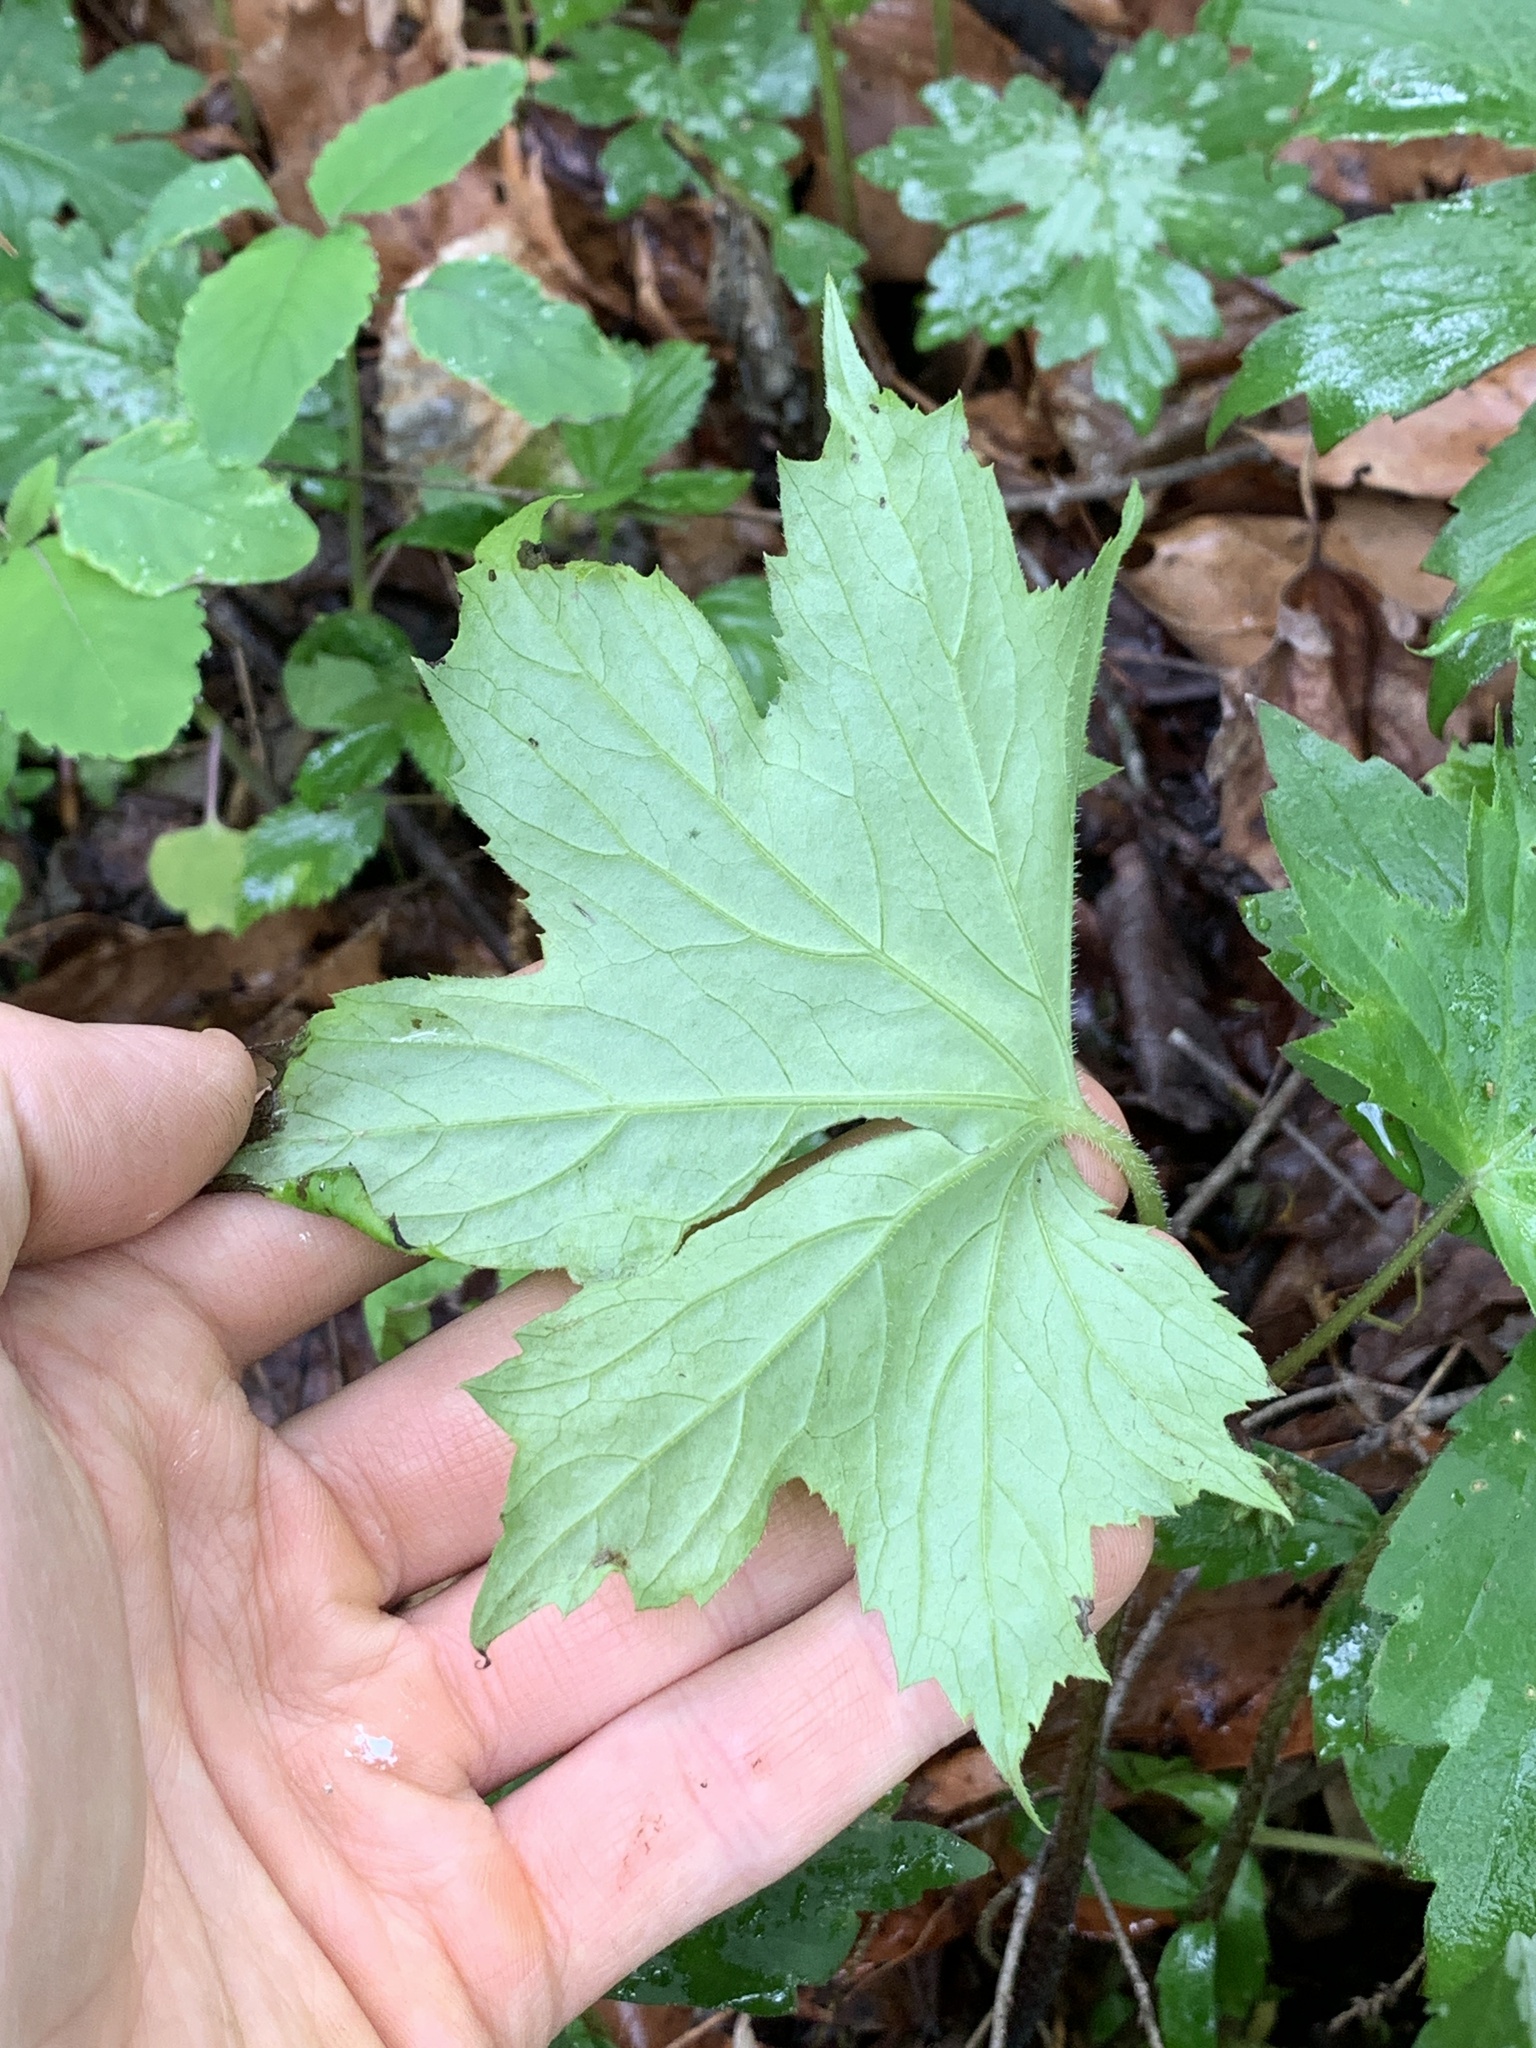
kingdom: Plantae
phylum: Tracheophyta
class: Magnoliopsida
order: Boraginales
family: Hydrophyllaceae
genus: Hydrophyllum
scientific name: Hydrophyllum canadense
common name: Canada waterleaf
